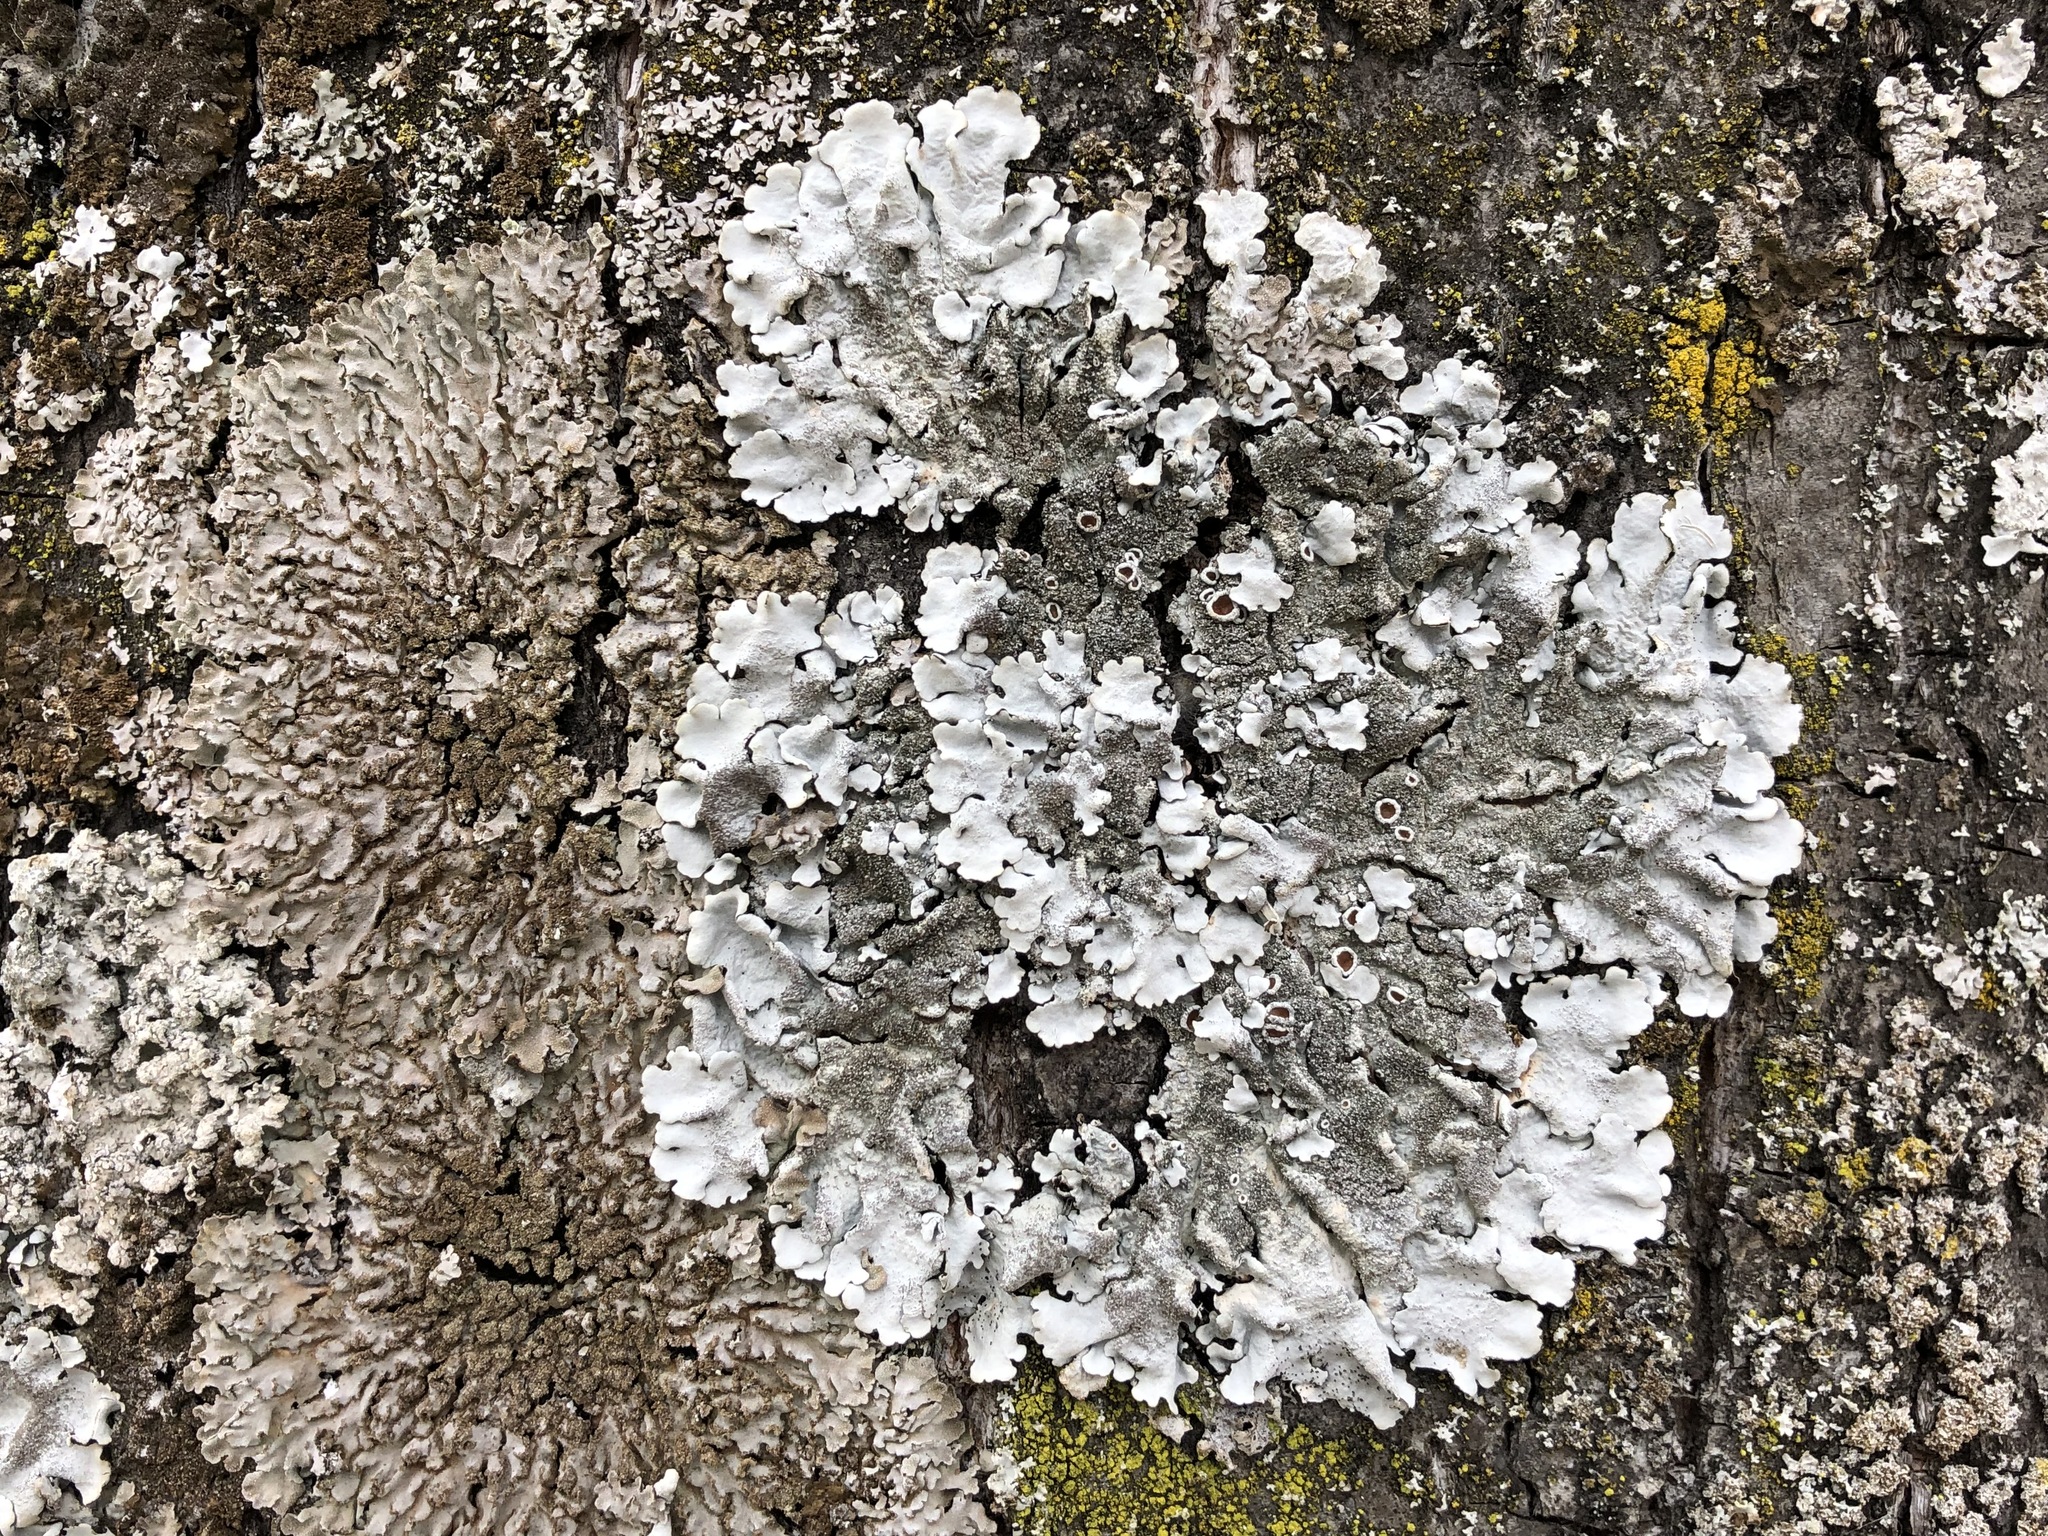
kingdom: Fungi
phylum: Ascomycota
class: Lecanoromycetes
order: Lecanorales
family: Parmeliaceae
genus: Parmelina
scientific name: Parmelina tiliacea
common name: Linden shield lichen
